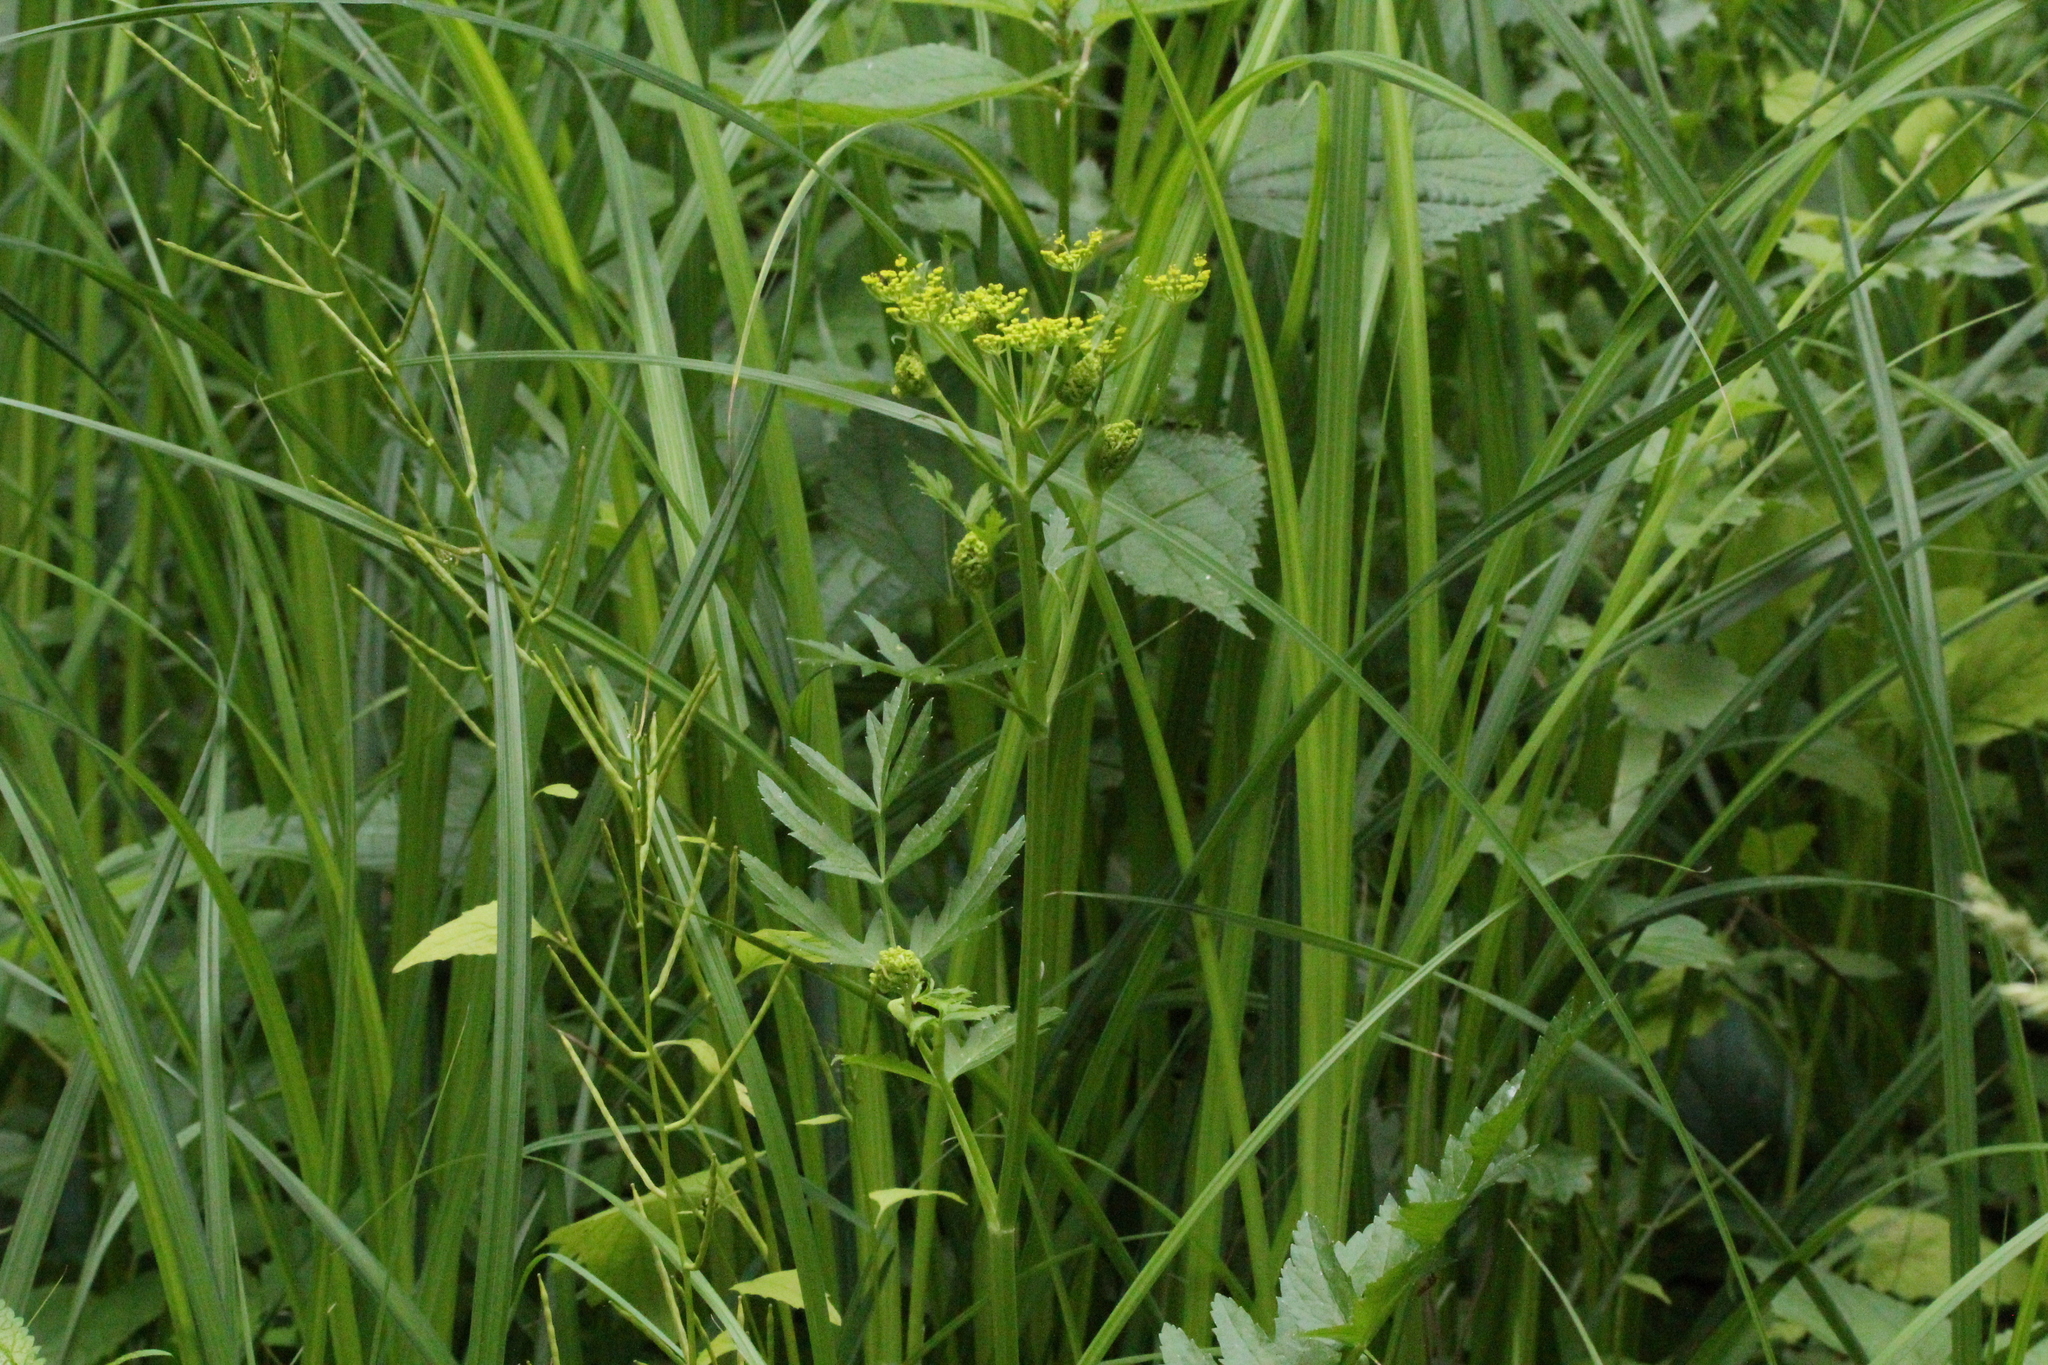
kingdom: Plantae
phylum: Tracheophyta
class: Magnoliopsida
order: Apiales
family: Apiaceae
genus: Pastinaca
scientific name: Pastinaca sativa
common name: Wild parsnip
